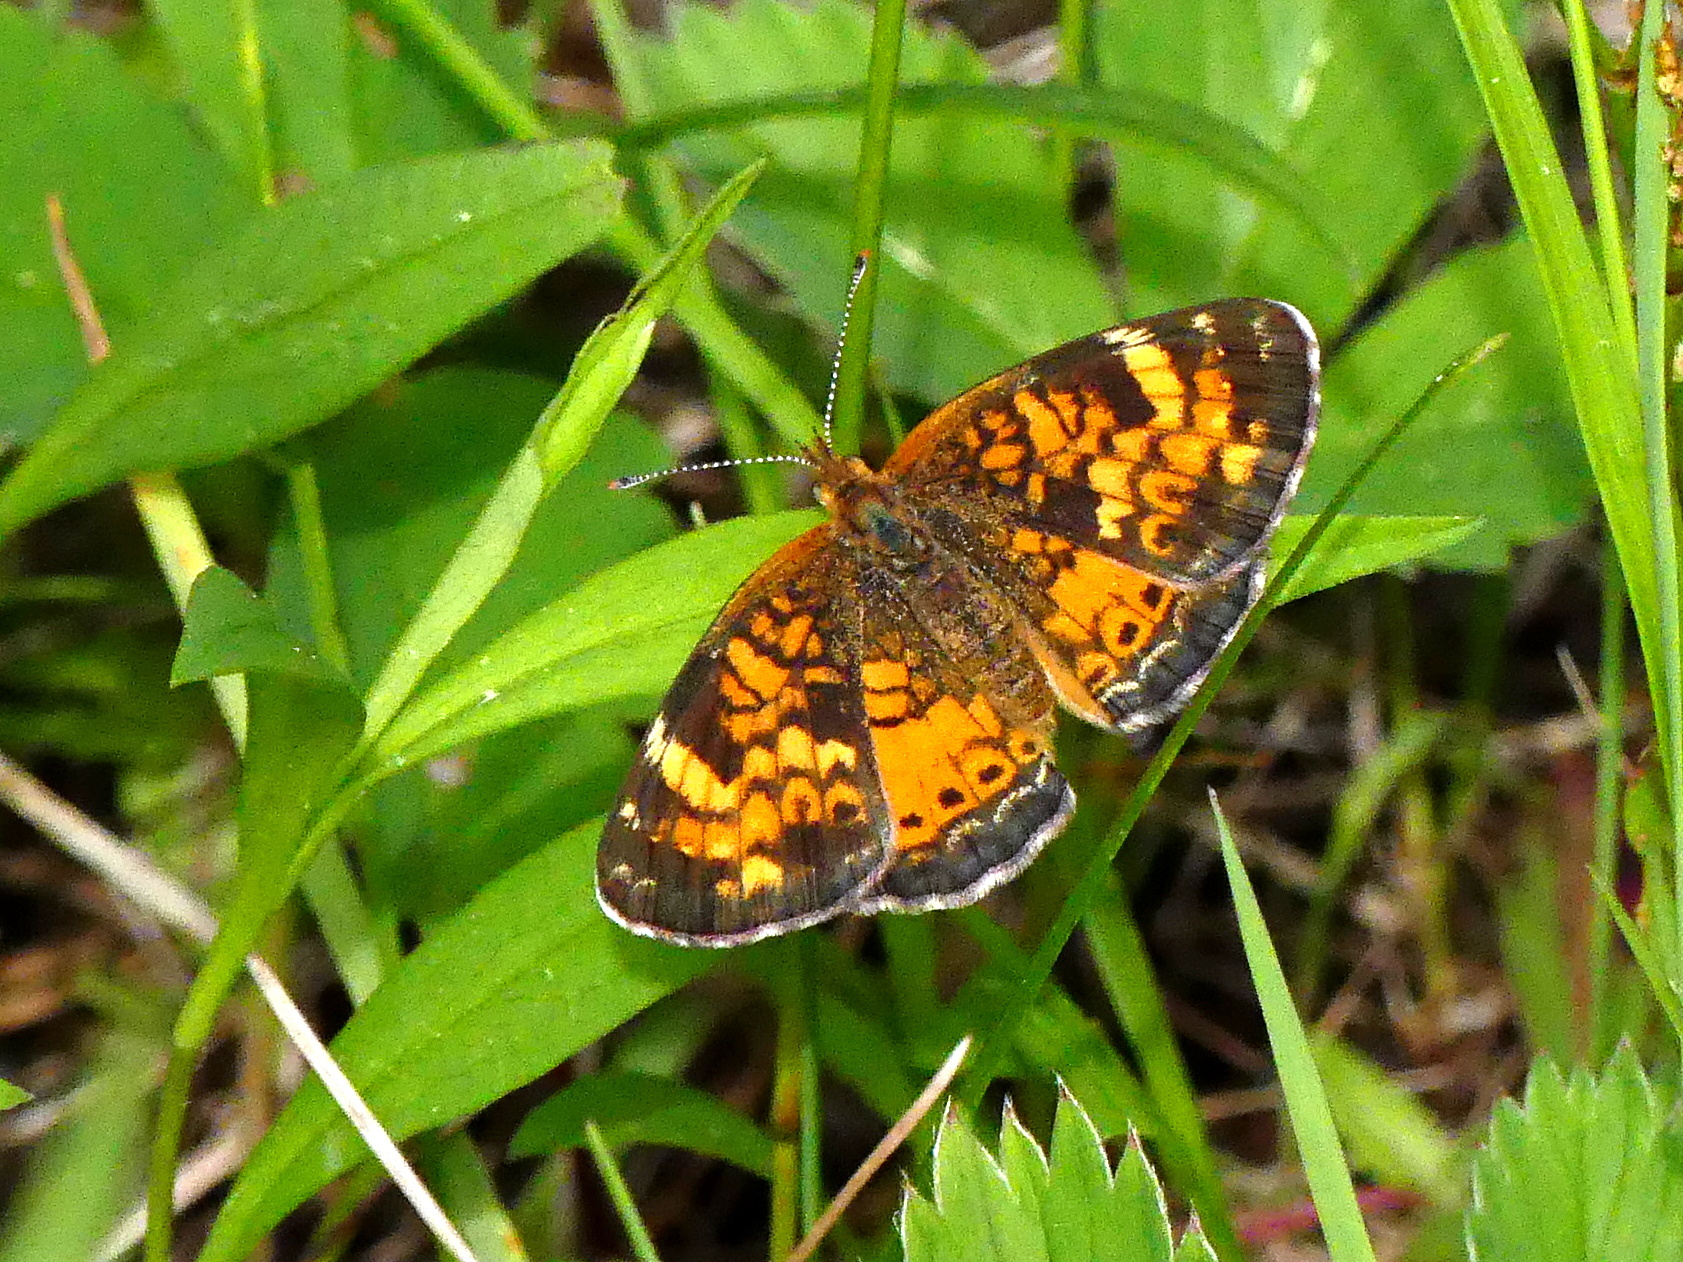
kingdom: Animalia
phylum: Arthropoda
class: Insecta
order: Lepidoptera
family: Nymphalidae
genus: Phyciodes
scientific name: Phyciodes tharos
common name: Pearl crescent
